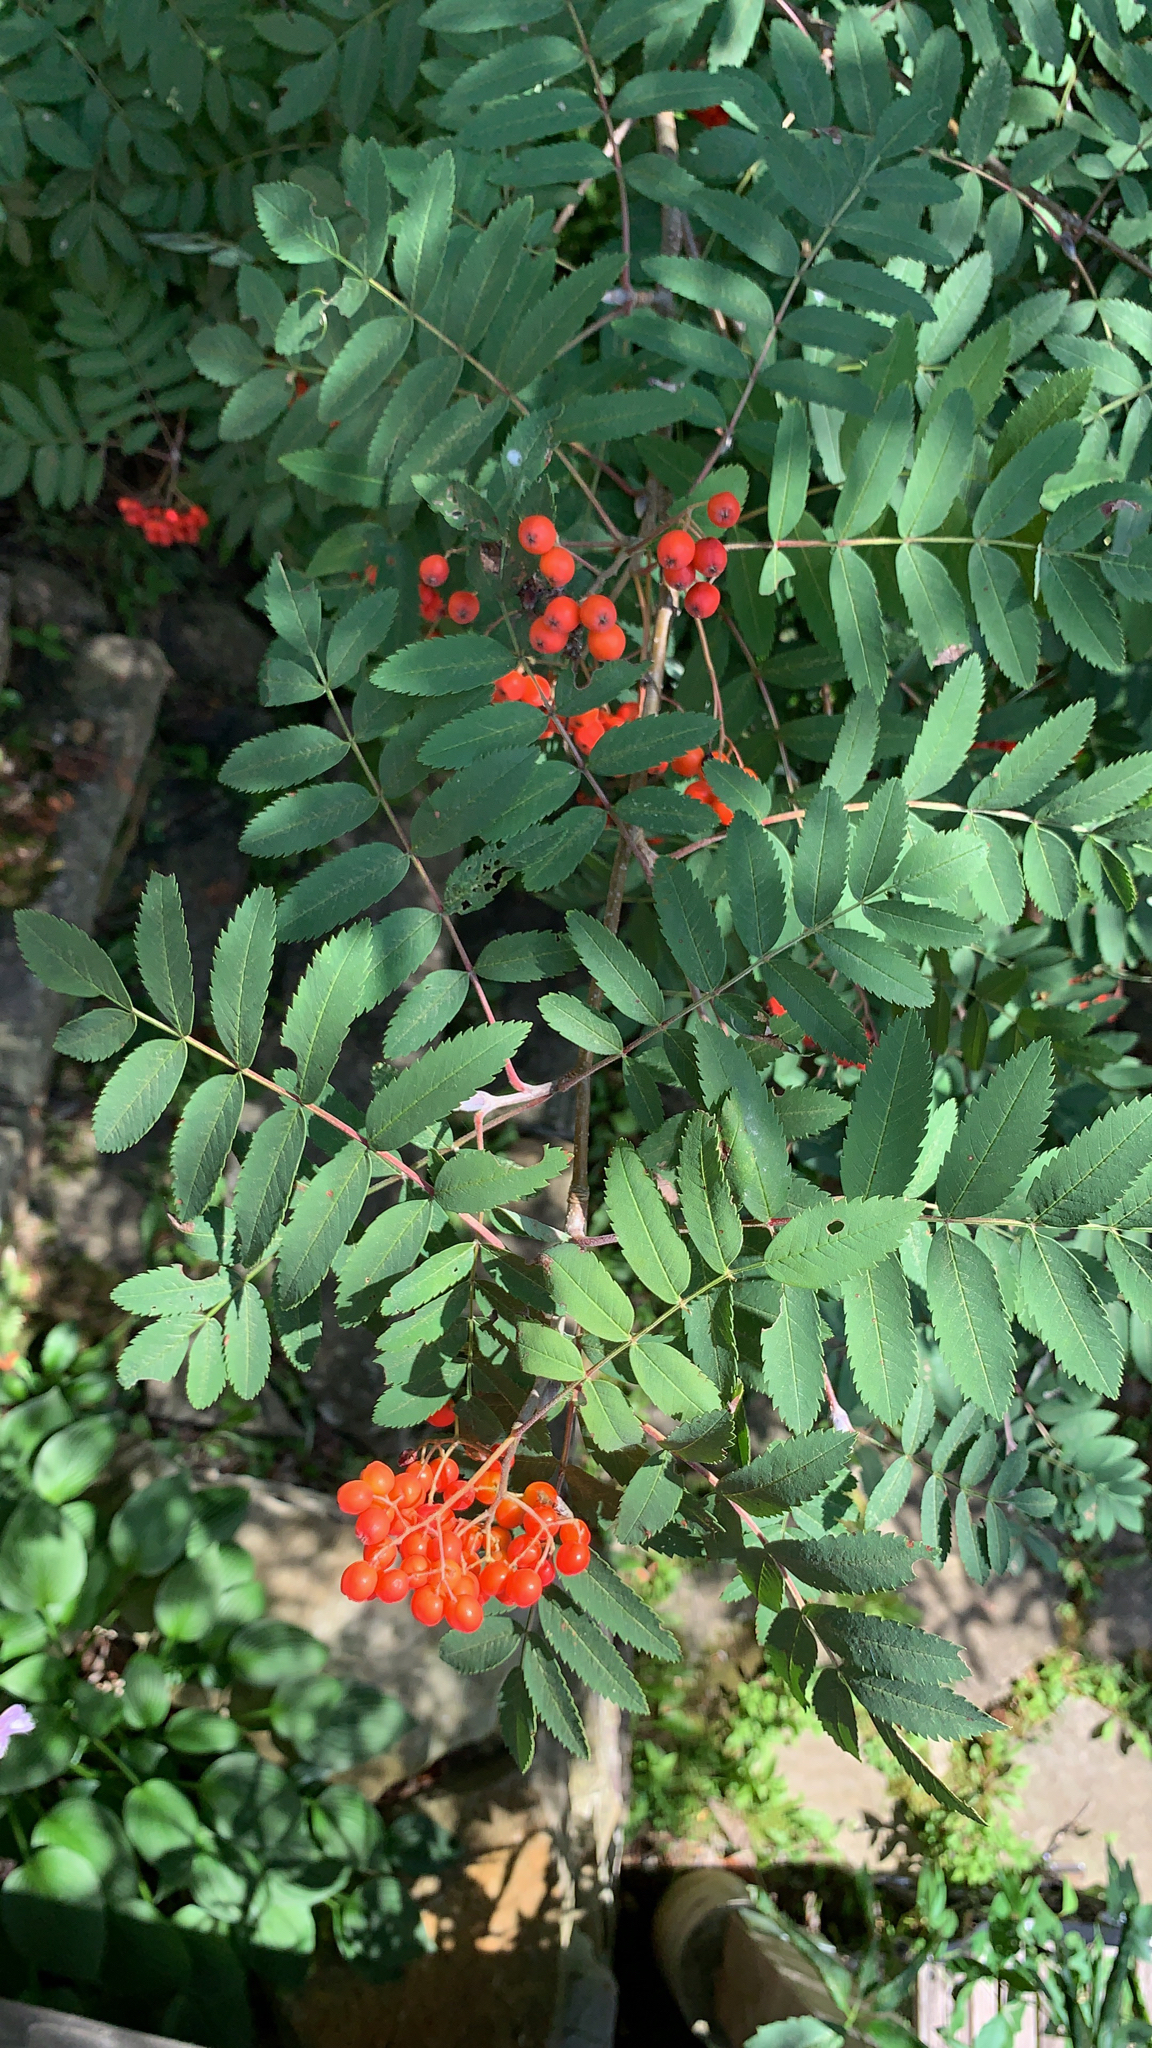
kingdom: Plantae
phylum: Tracheophyta
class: Magnoliopsida
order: Rosales
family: Rosaceae
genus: Sorbus
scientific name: Sorbus aucuparia
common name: Rowan
